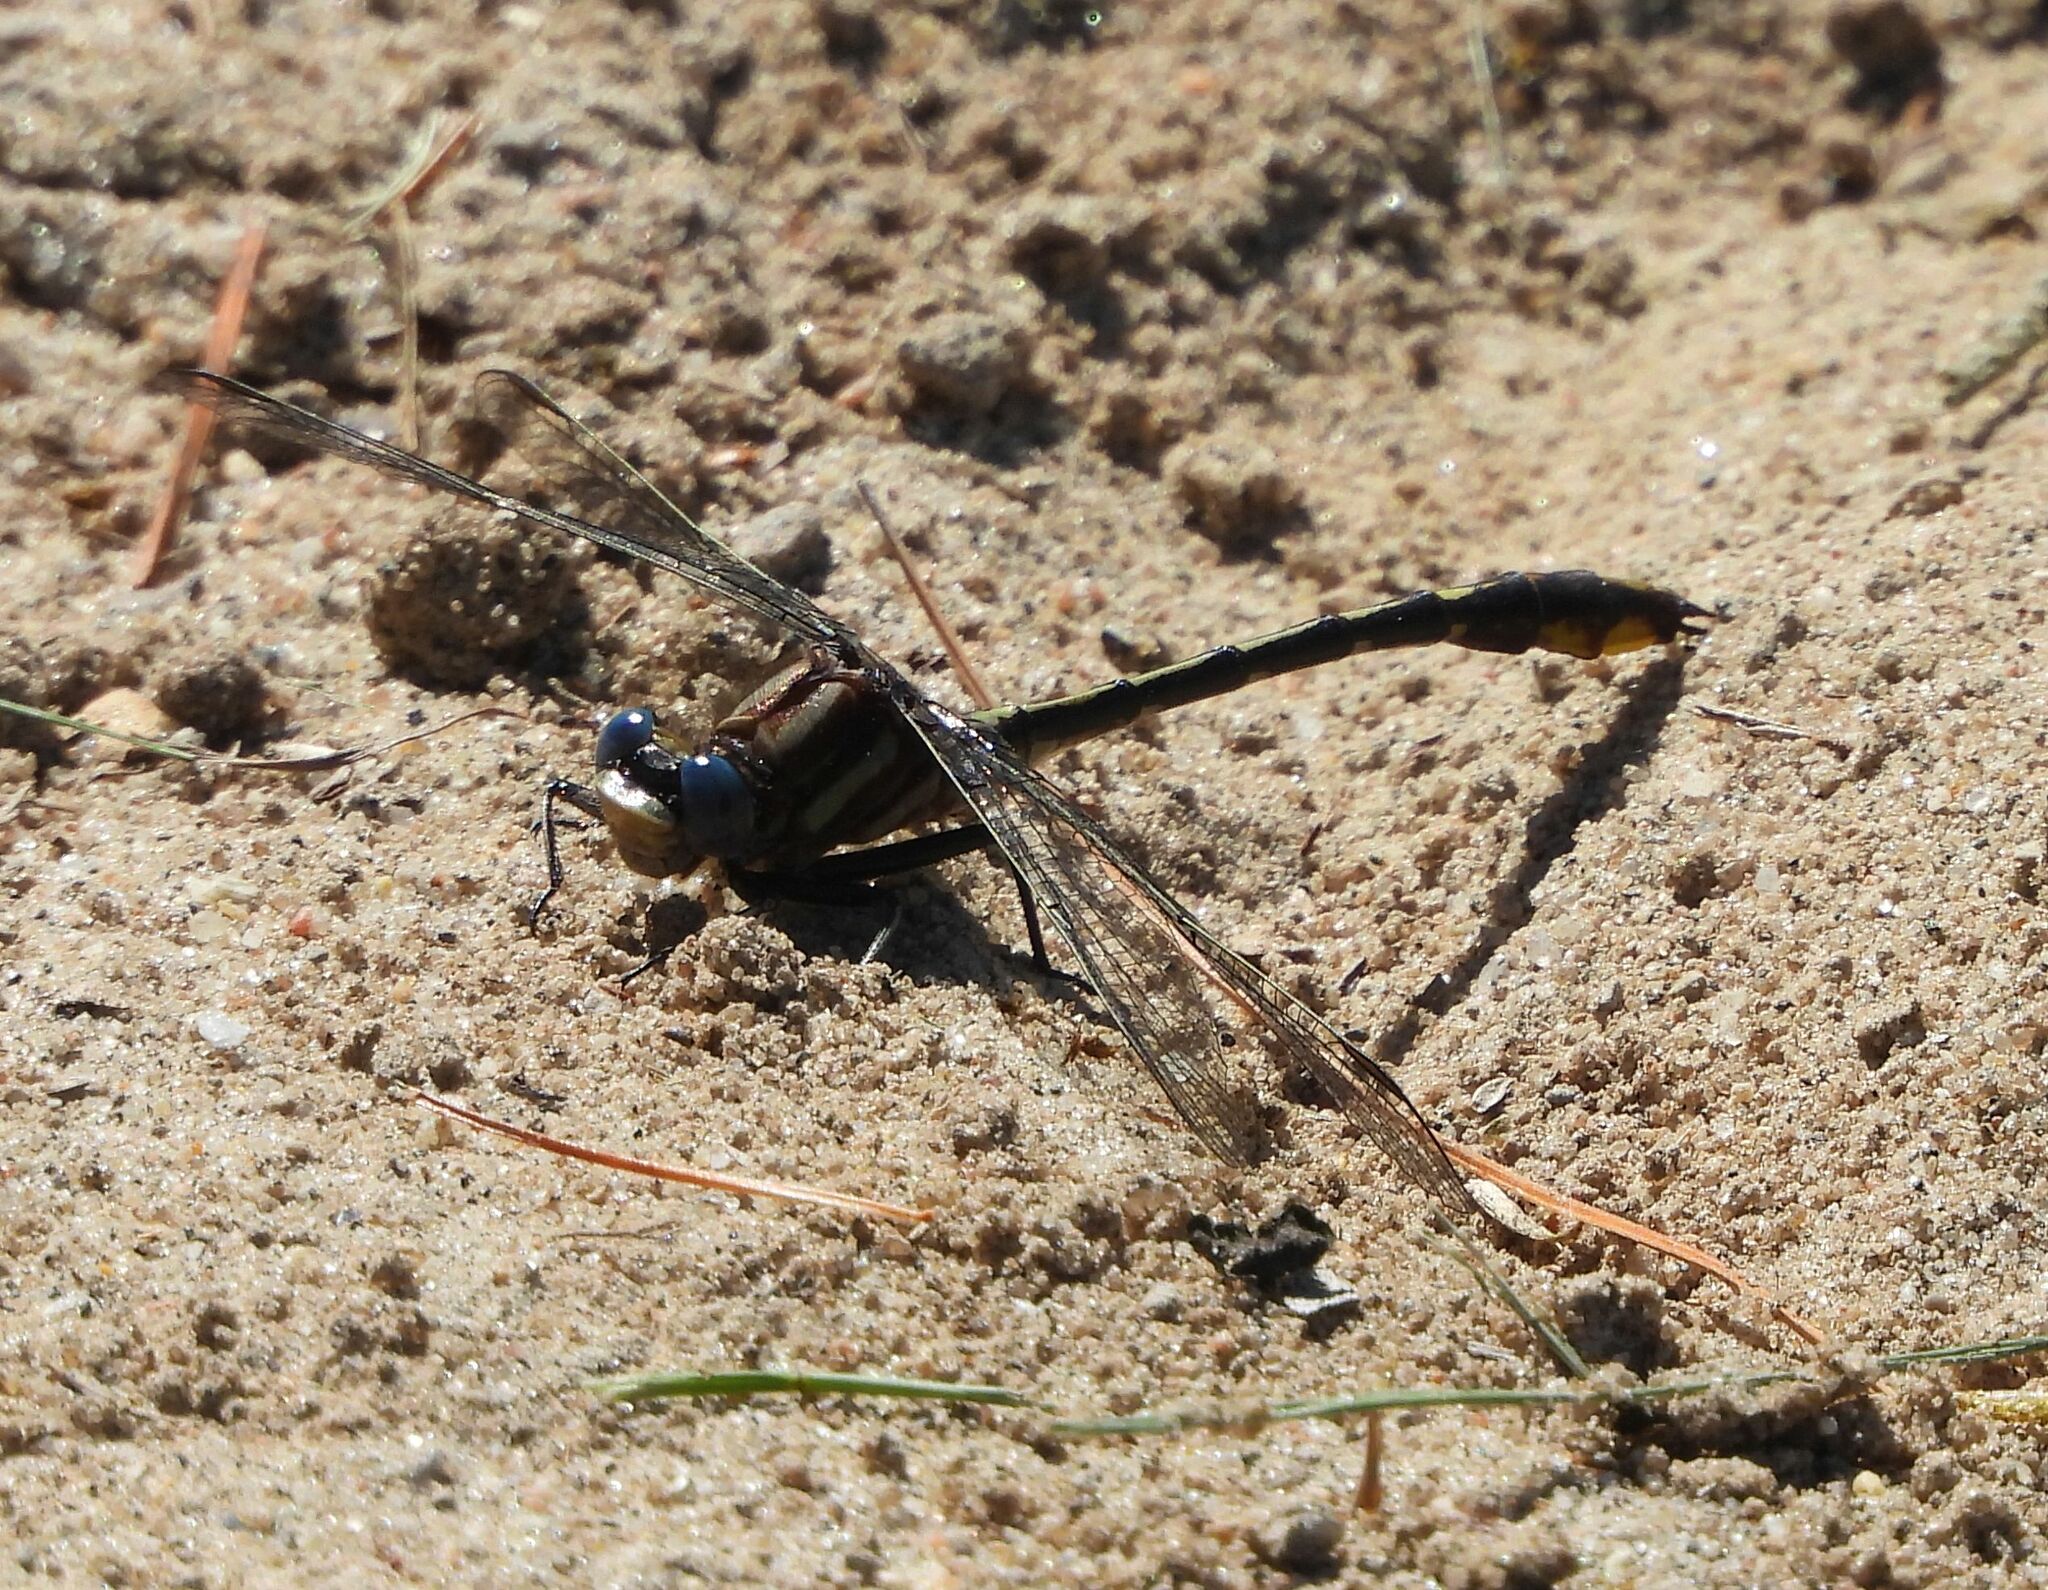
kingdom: Animalia
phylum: Arthropoda
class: Insecta
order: Odonata
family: Gomphidae
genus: Phanogomphus
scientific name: Phanogomphus exilis
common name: Lancet clubtail
